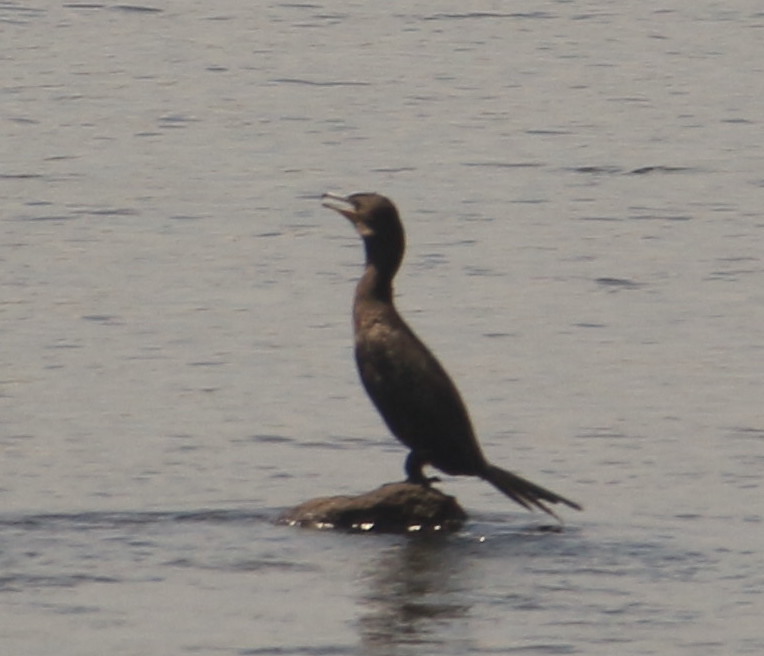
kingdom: Animalia
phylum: Chordata
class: Aves
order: Suliformes
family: Phalacrocoracidae
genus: Phalacrocorax
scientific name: Phalacrocorax brasilianus
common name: Neotropic cormorant
